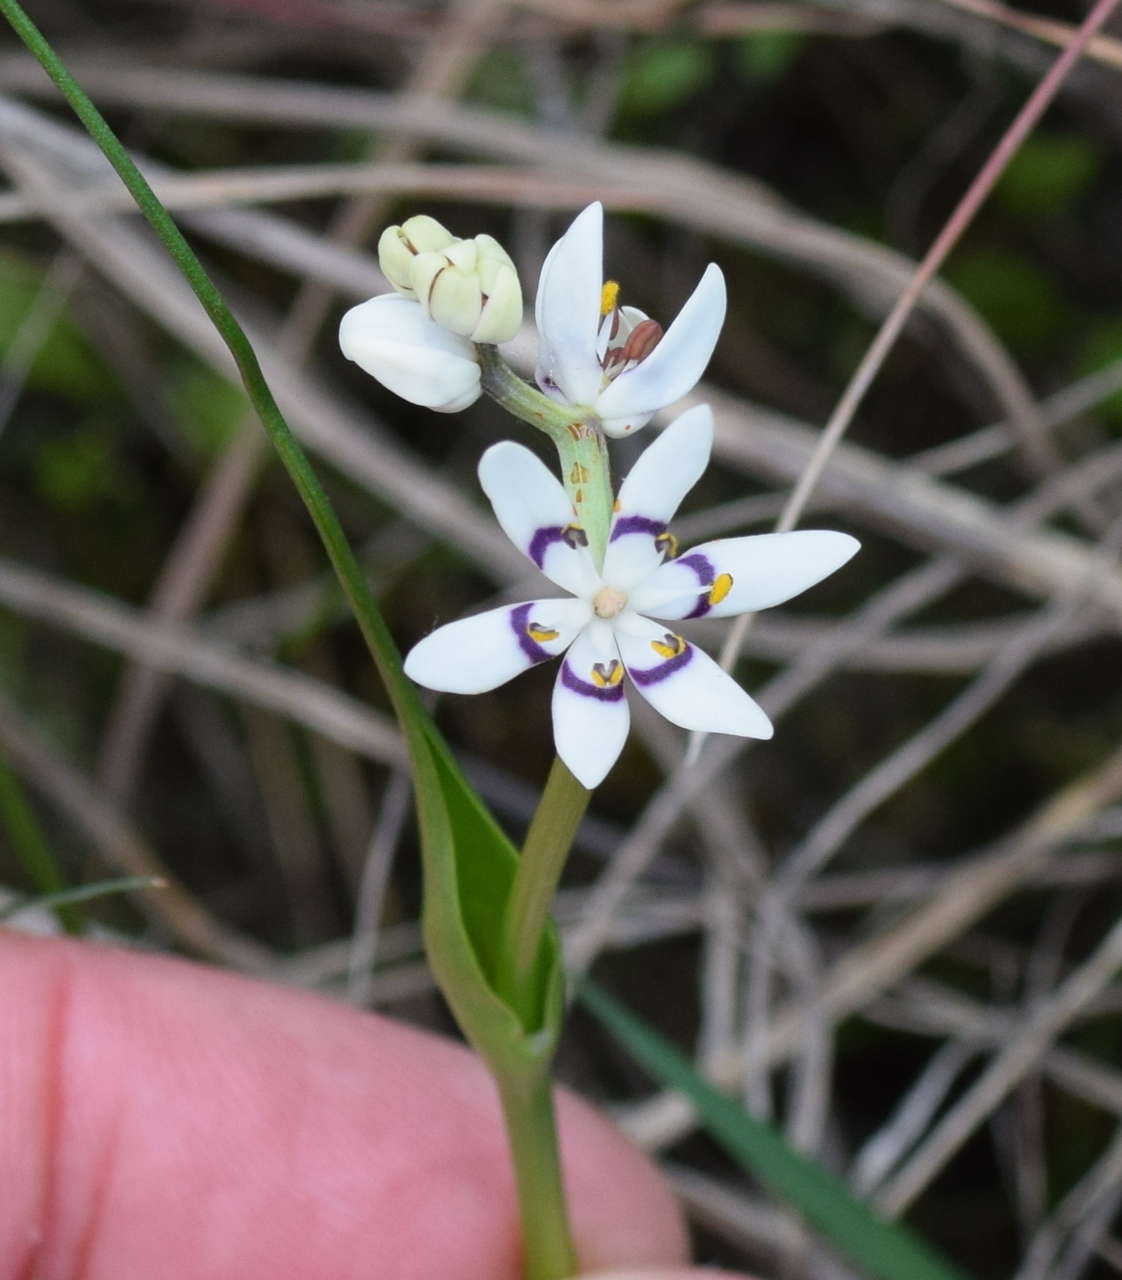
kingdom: Plantae
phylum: Tracheophyta
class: Liliopsida
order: Liliales
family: Colchicaceae
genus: Wurmbea
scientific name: Wurmbea dioica
